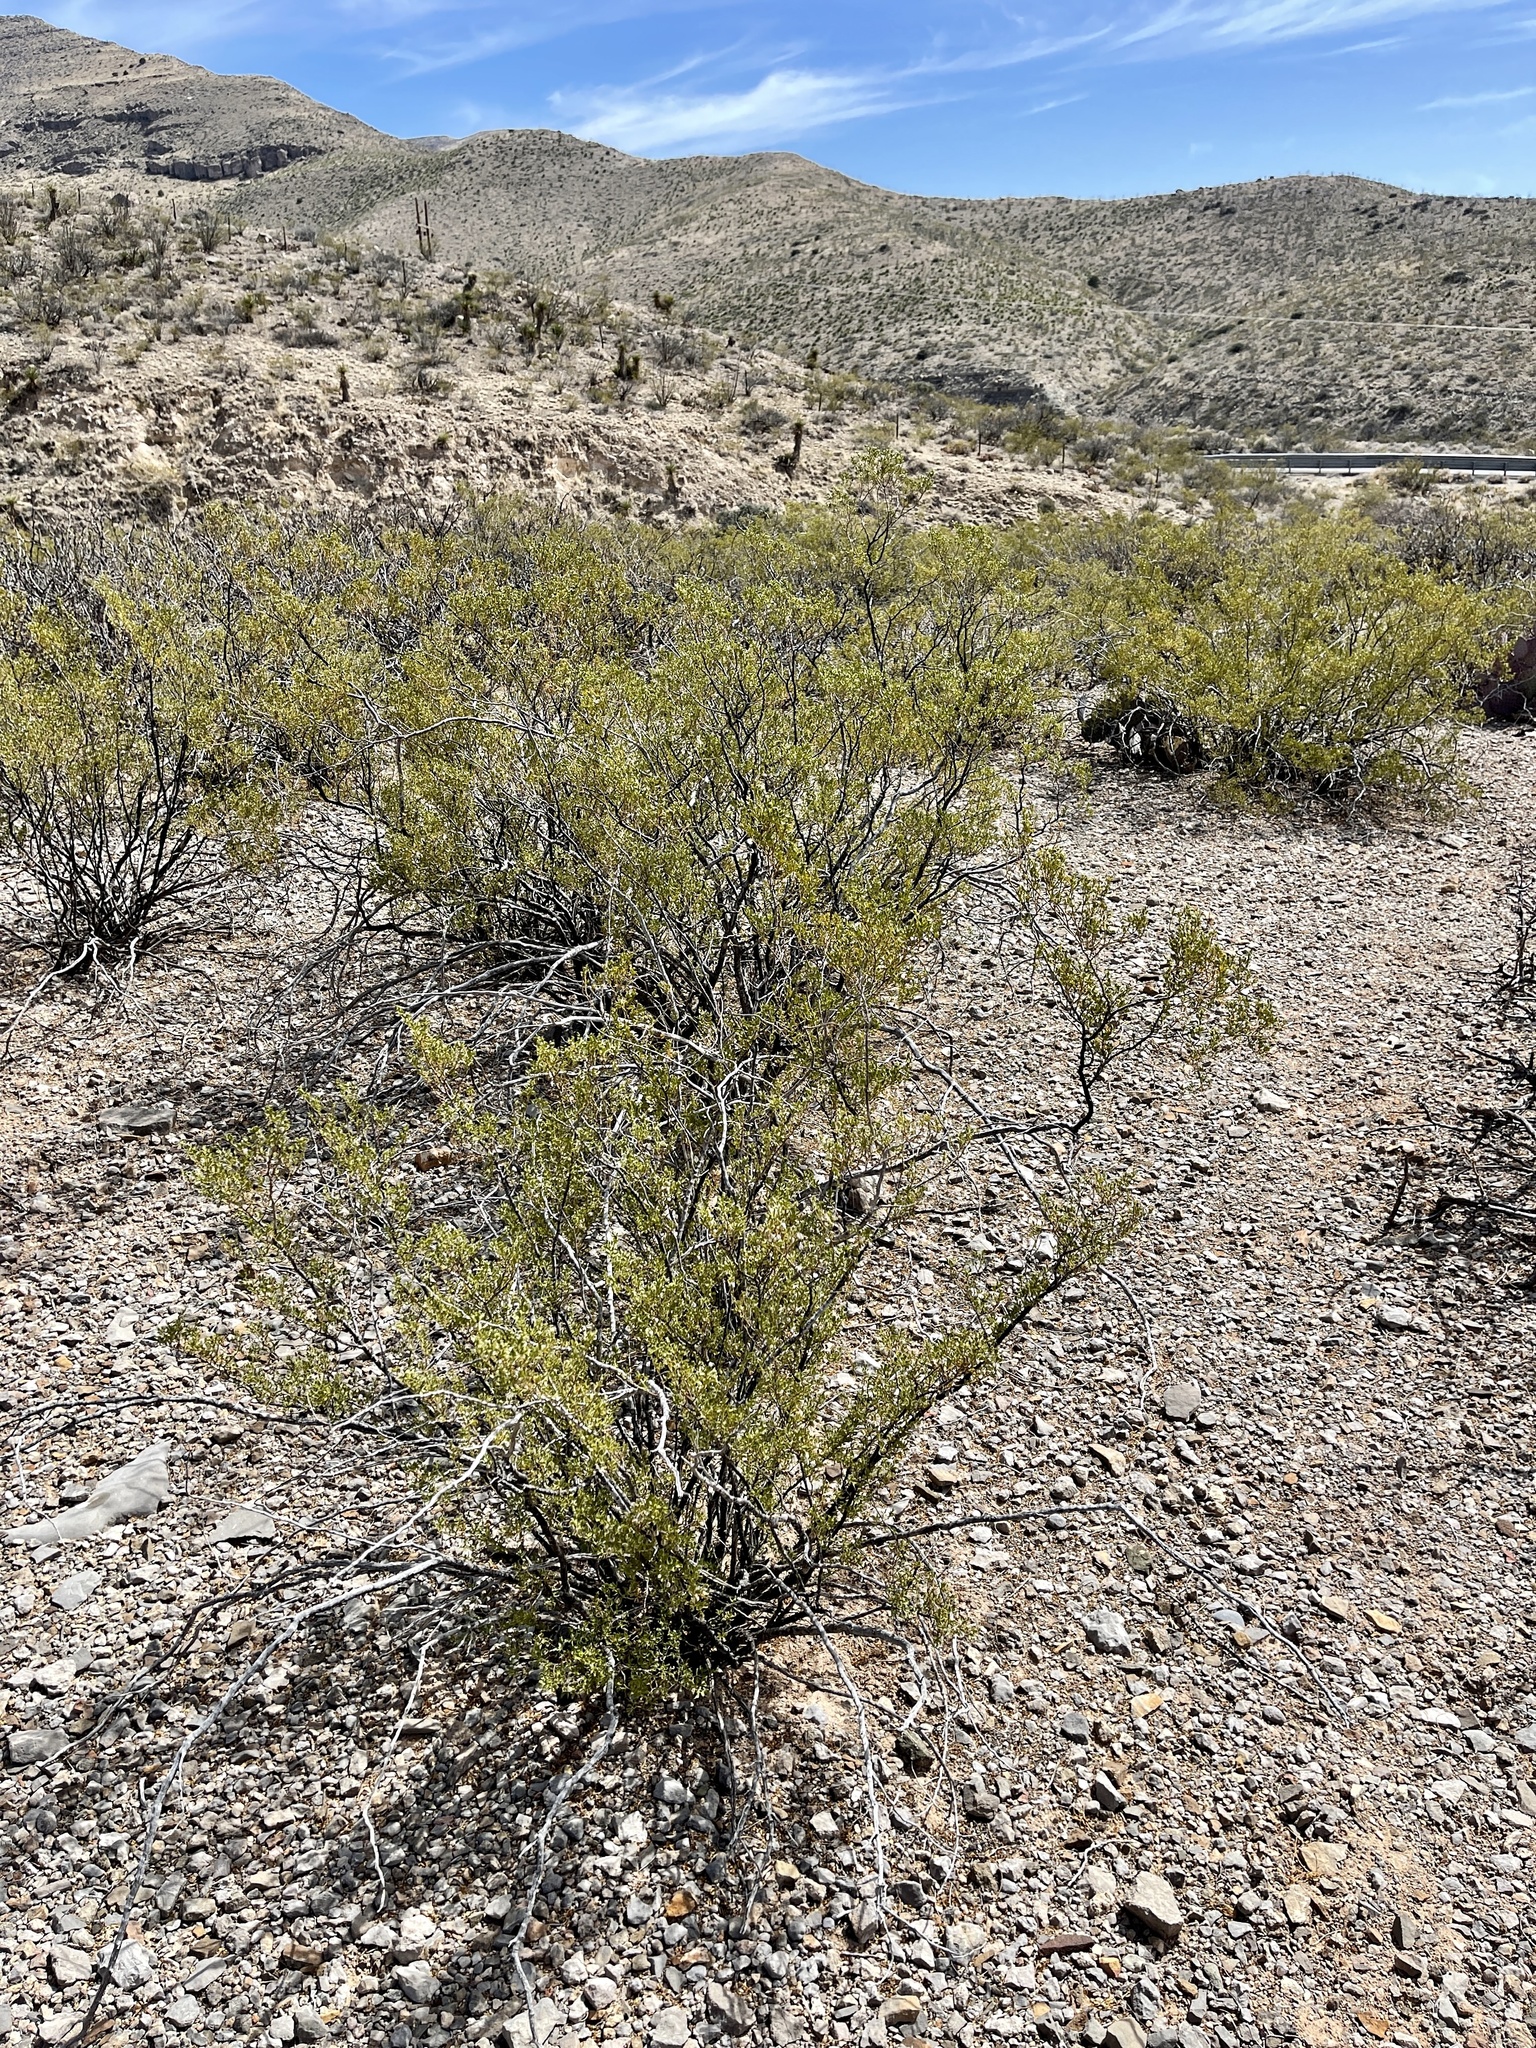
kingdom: Plantae
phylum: Tracheophyta
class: Magnoliopsida
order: Zygophyllales
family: Zygophyllaceae
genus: Larrea
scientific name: Larrea tridentata
